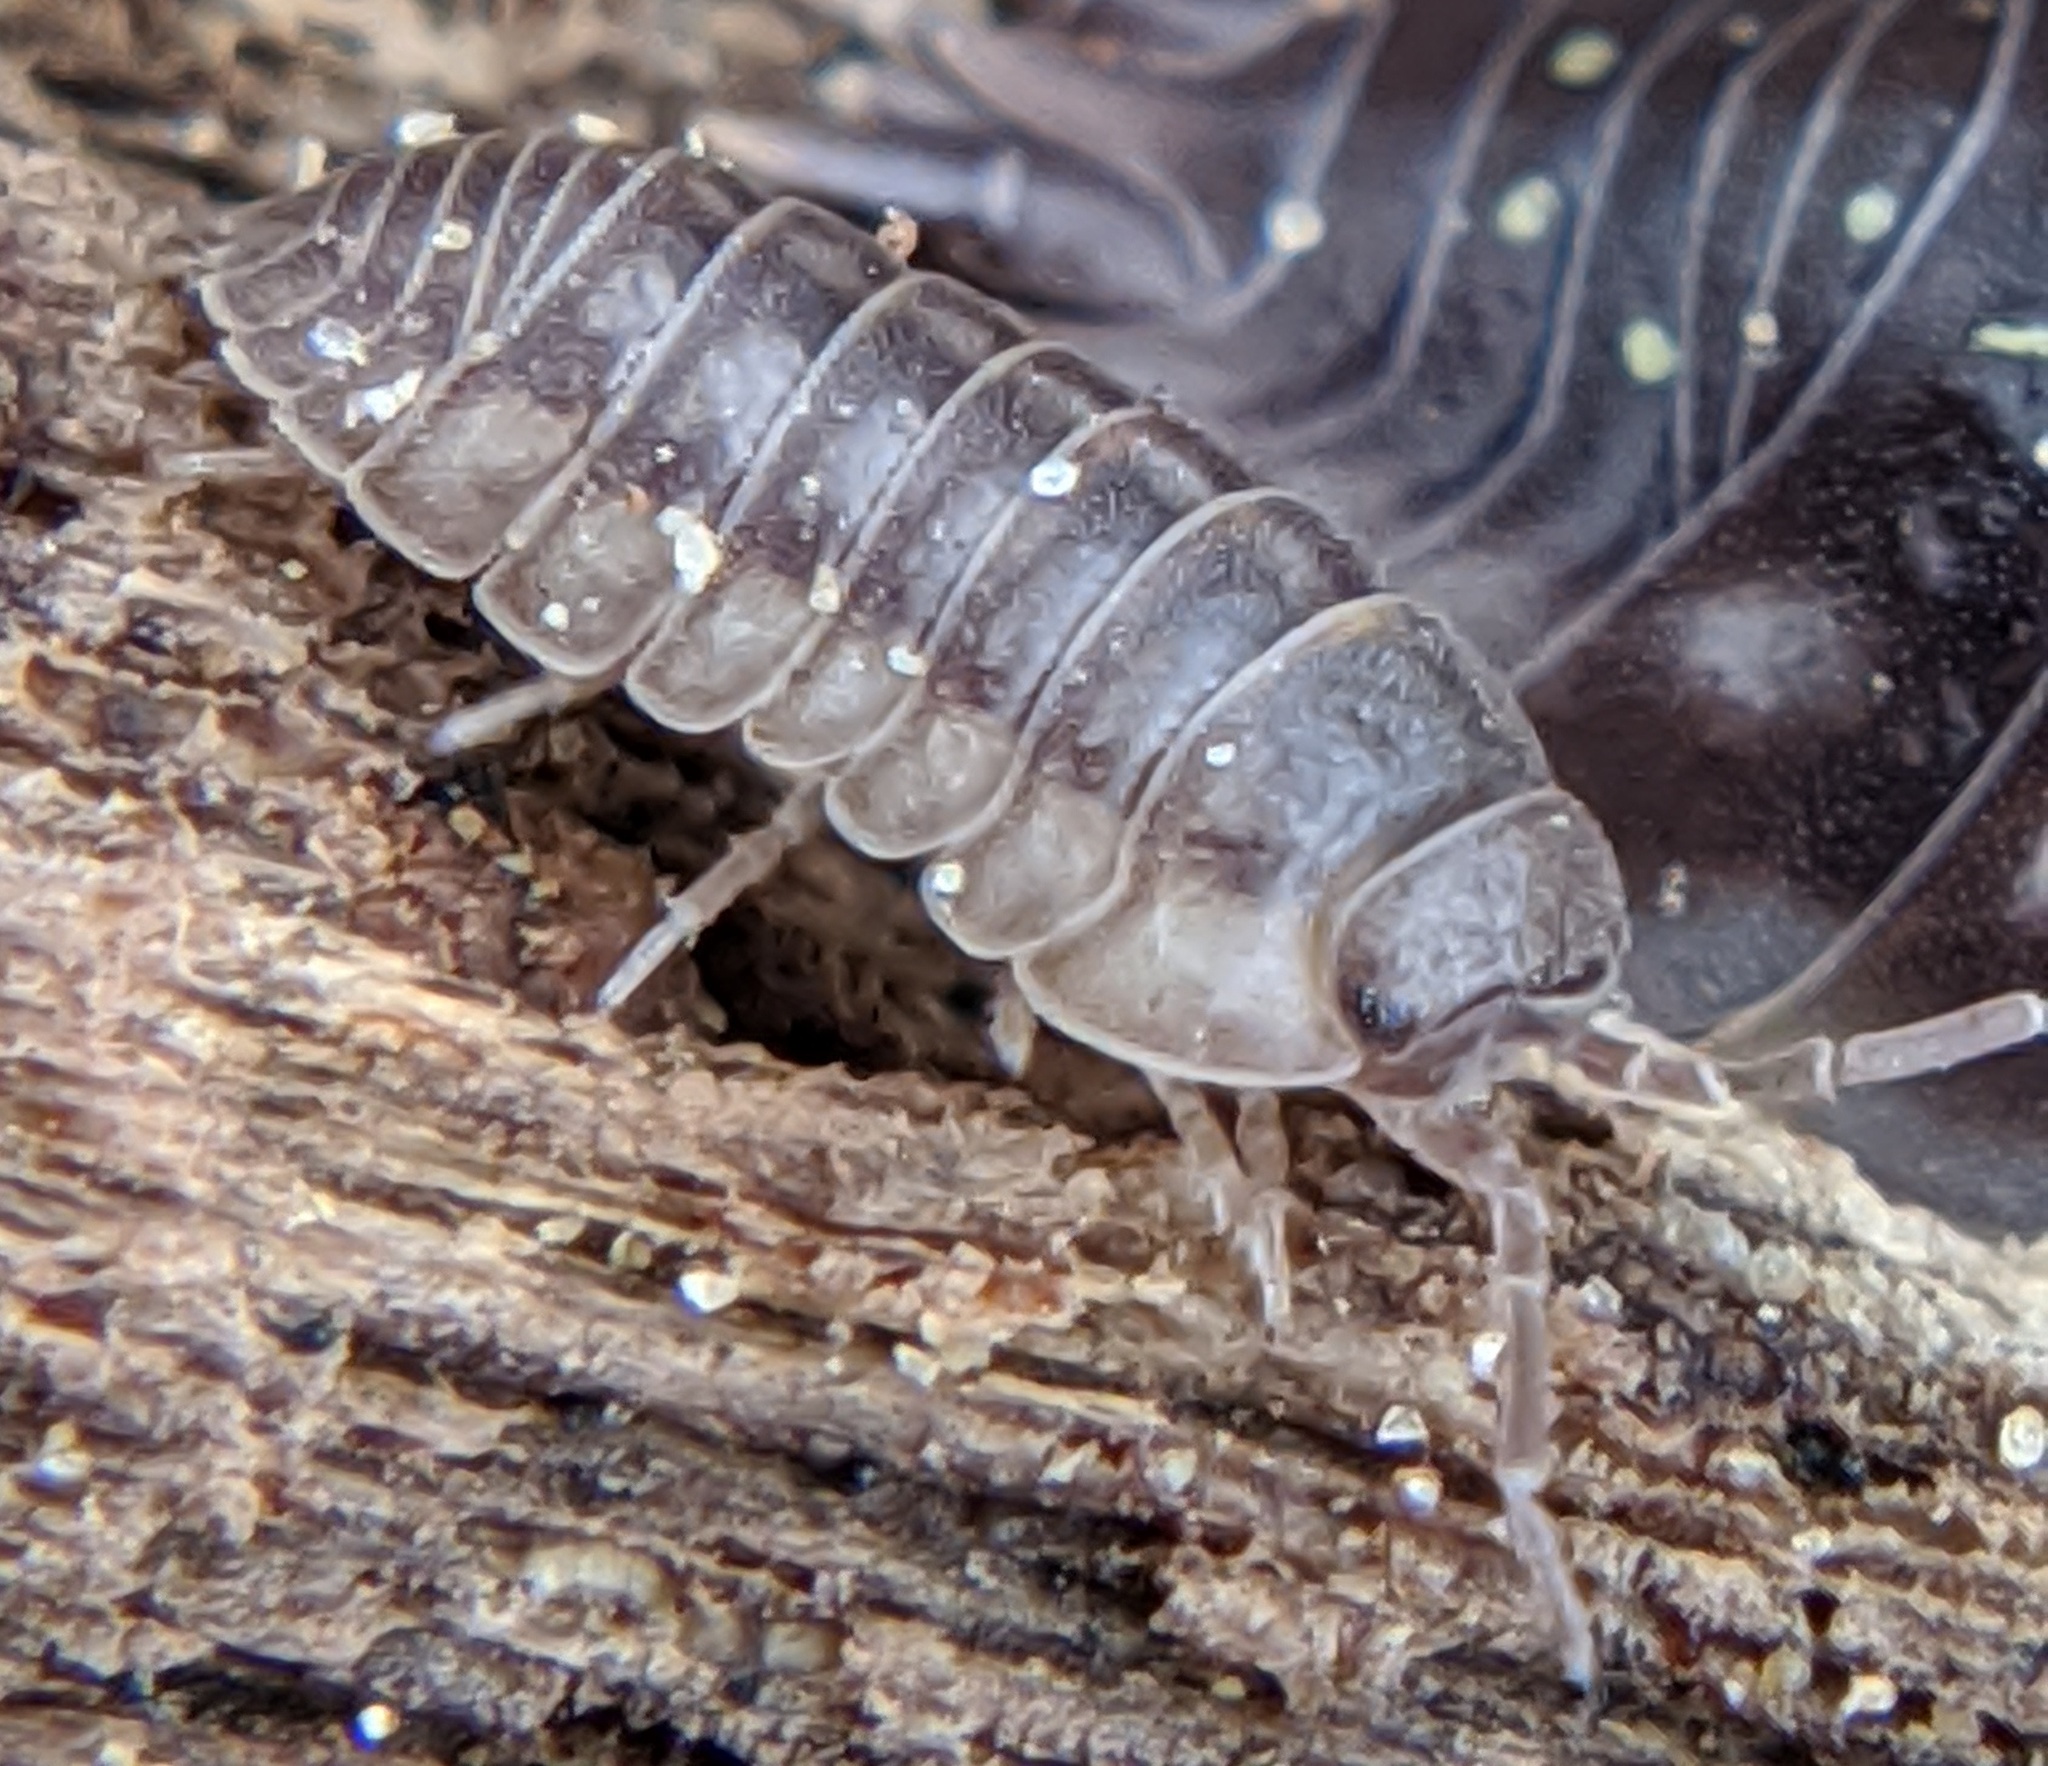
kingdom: Animalia
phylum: Arthropoda
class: Malacostraca
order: Isopoda
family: Armadillidiidae
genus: Armadillidium
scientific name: Armadillidium nasatum
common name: Isopod
